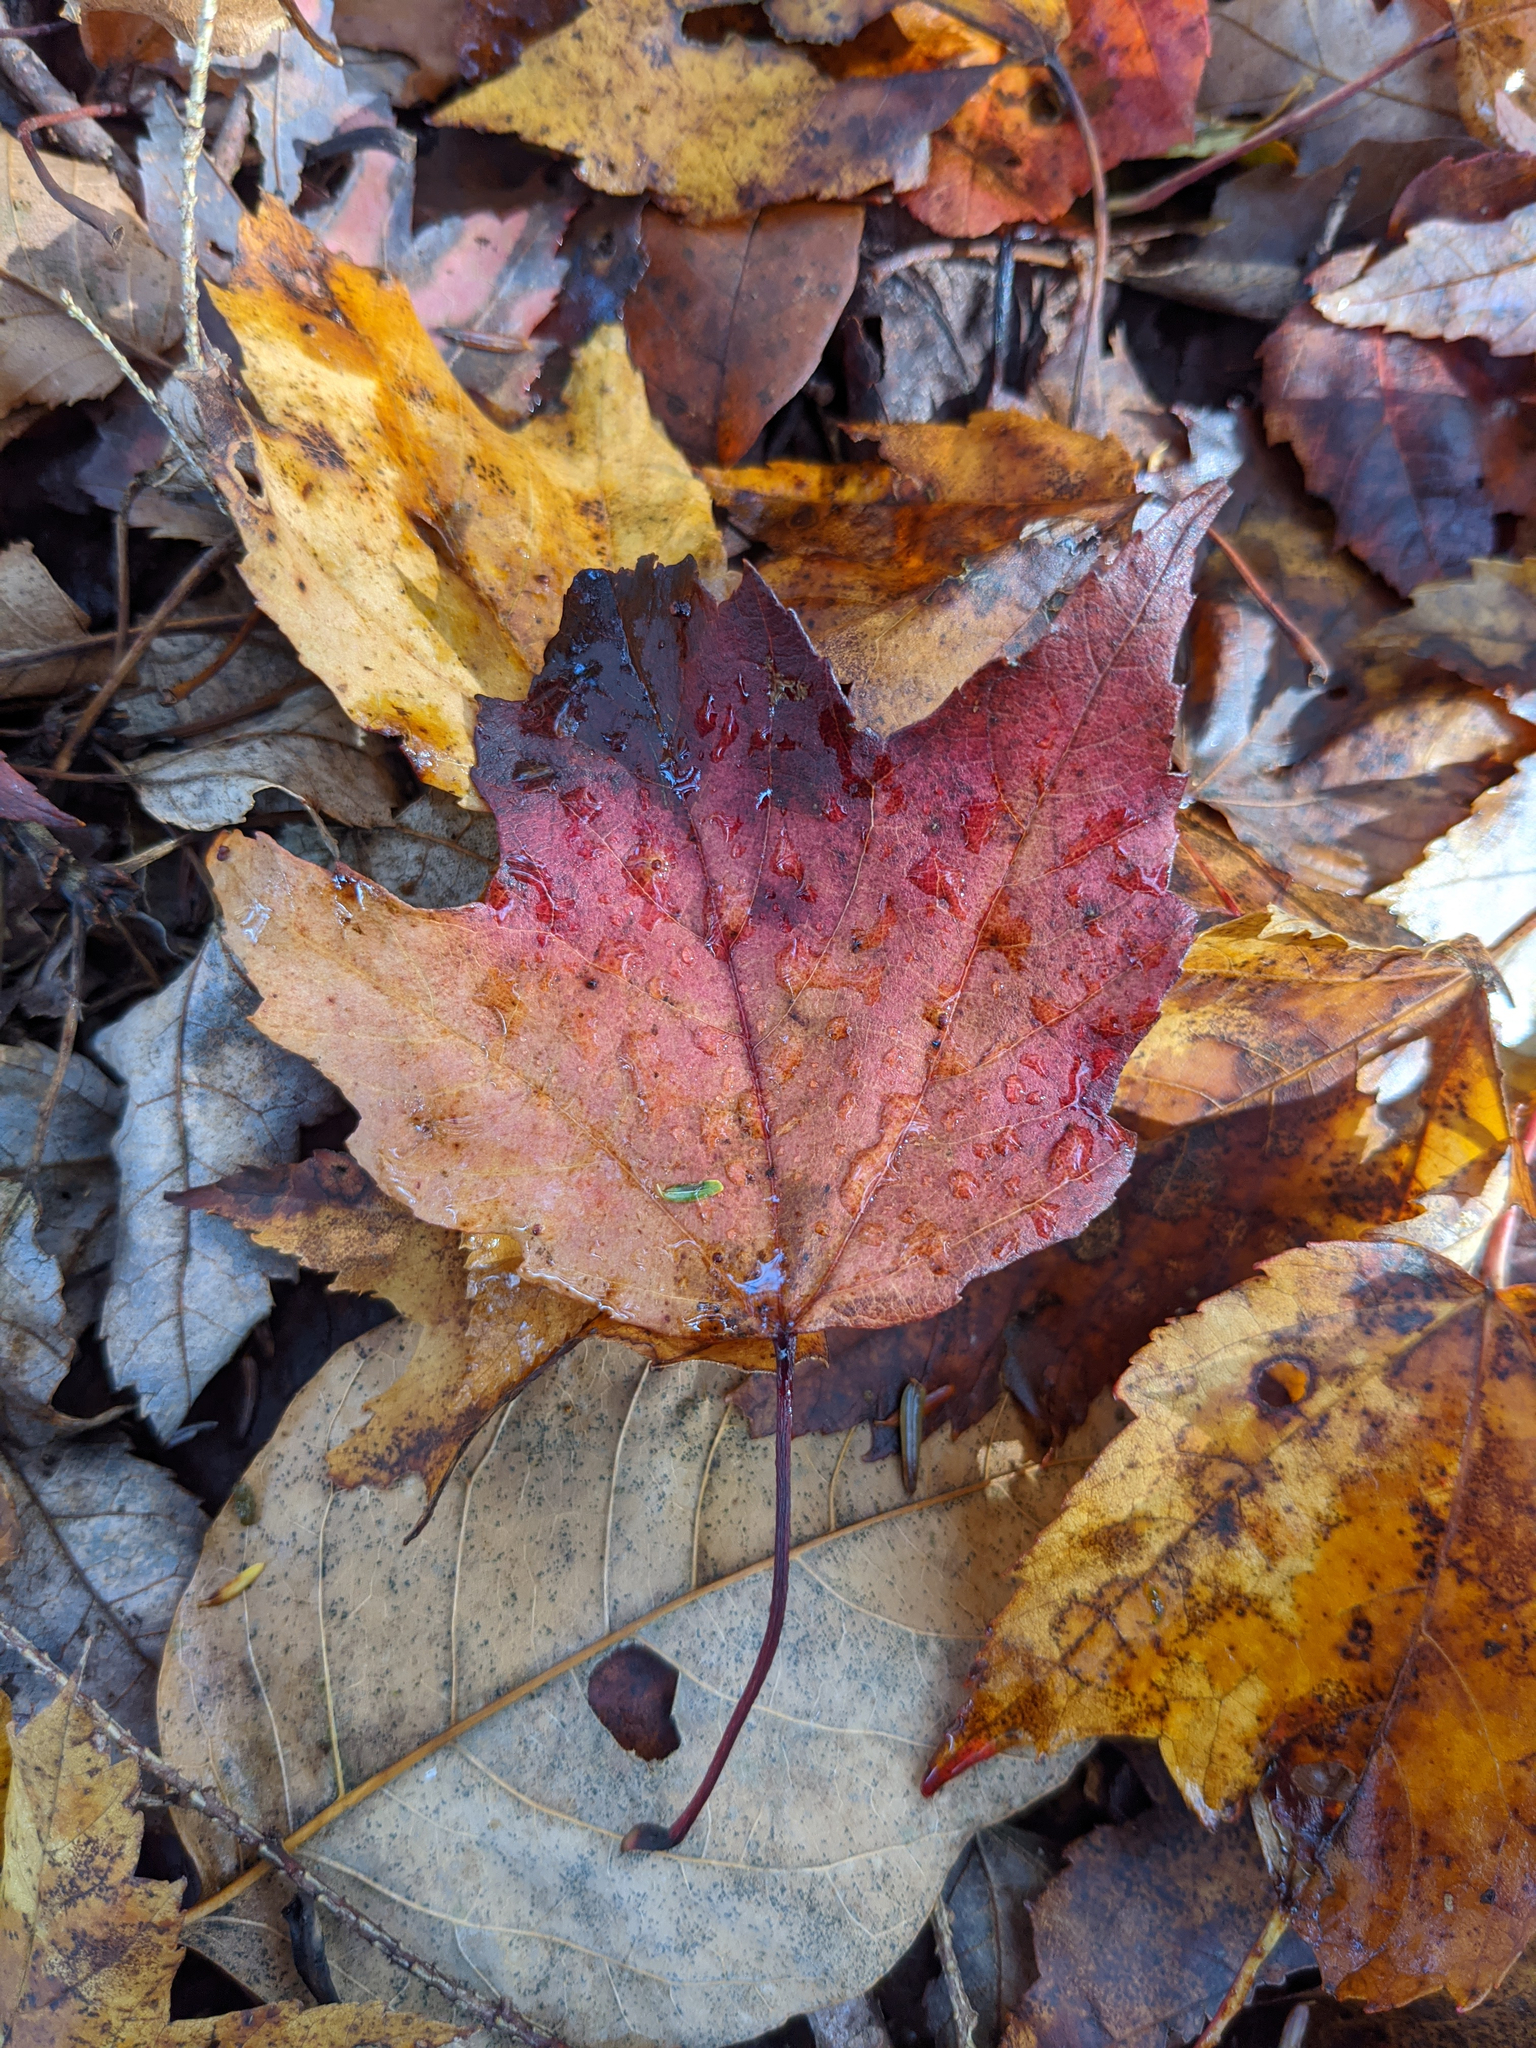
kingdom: Plantae
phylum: Tracheophyta
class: Magnoliopsida
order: Sapindales
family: Sapindaceae
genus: Acer
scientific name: Acer rubrum
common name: Red maple
